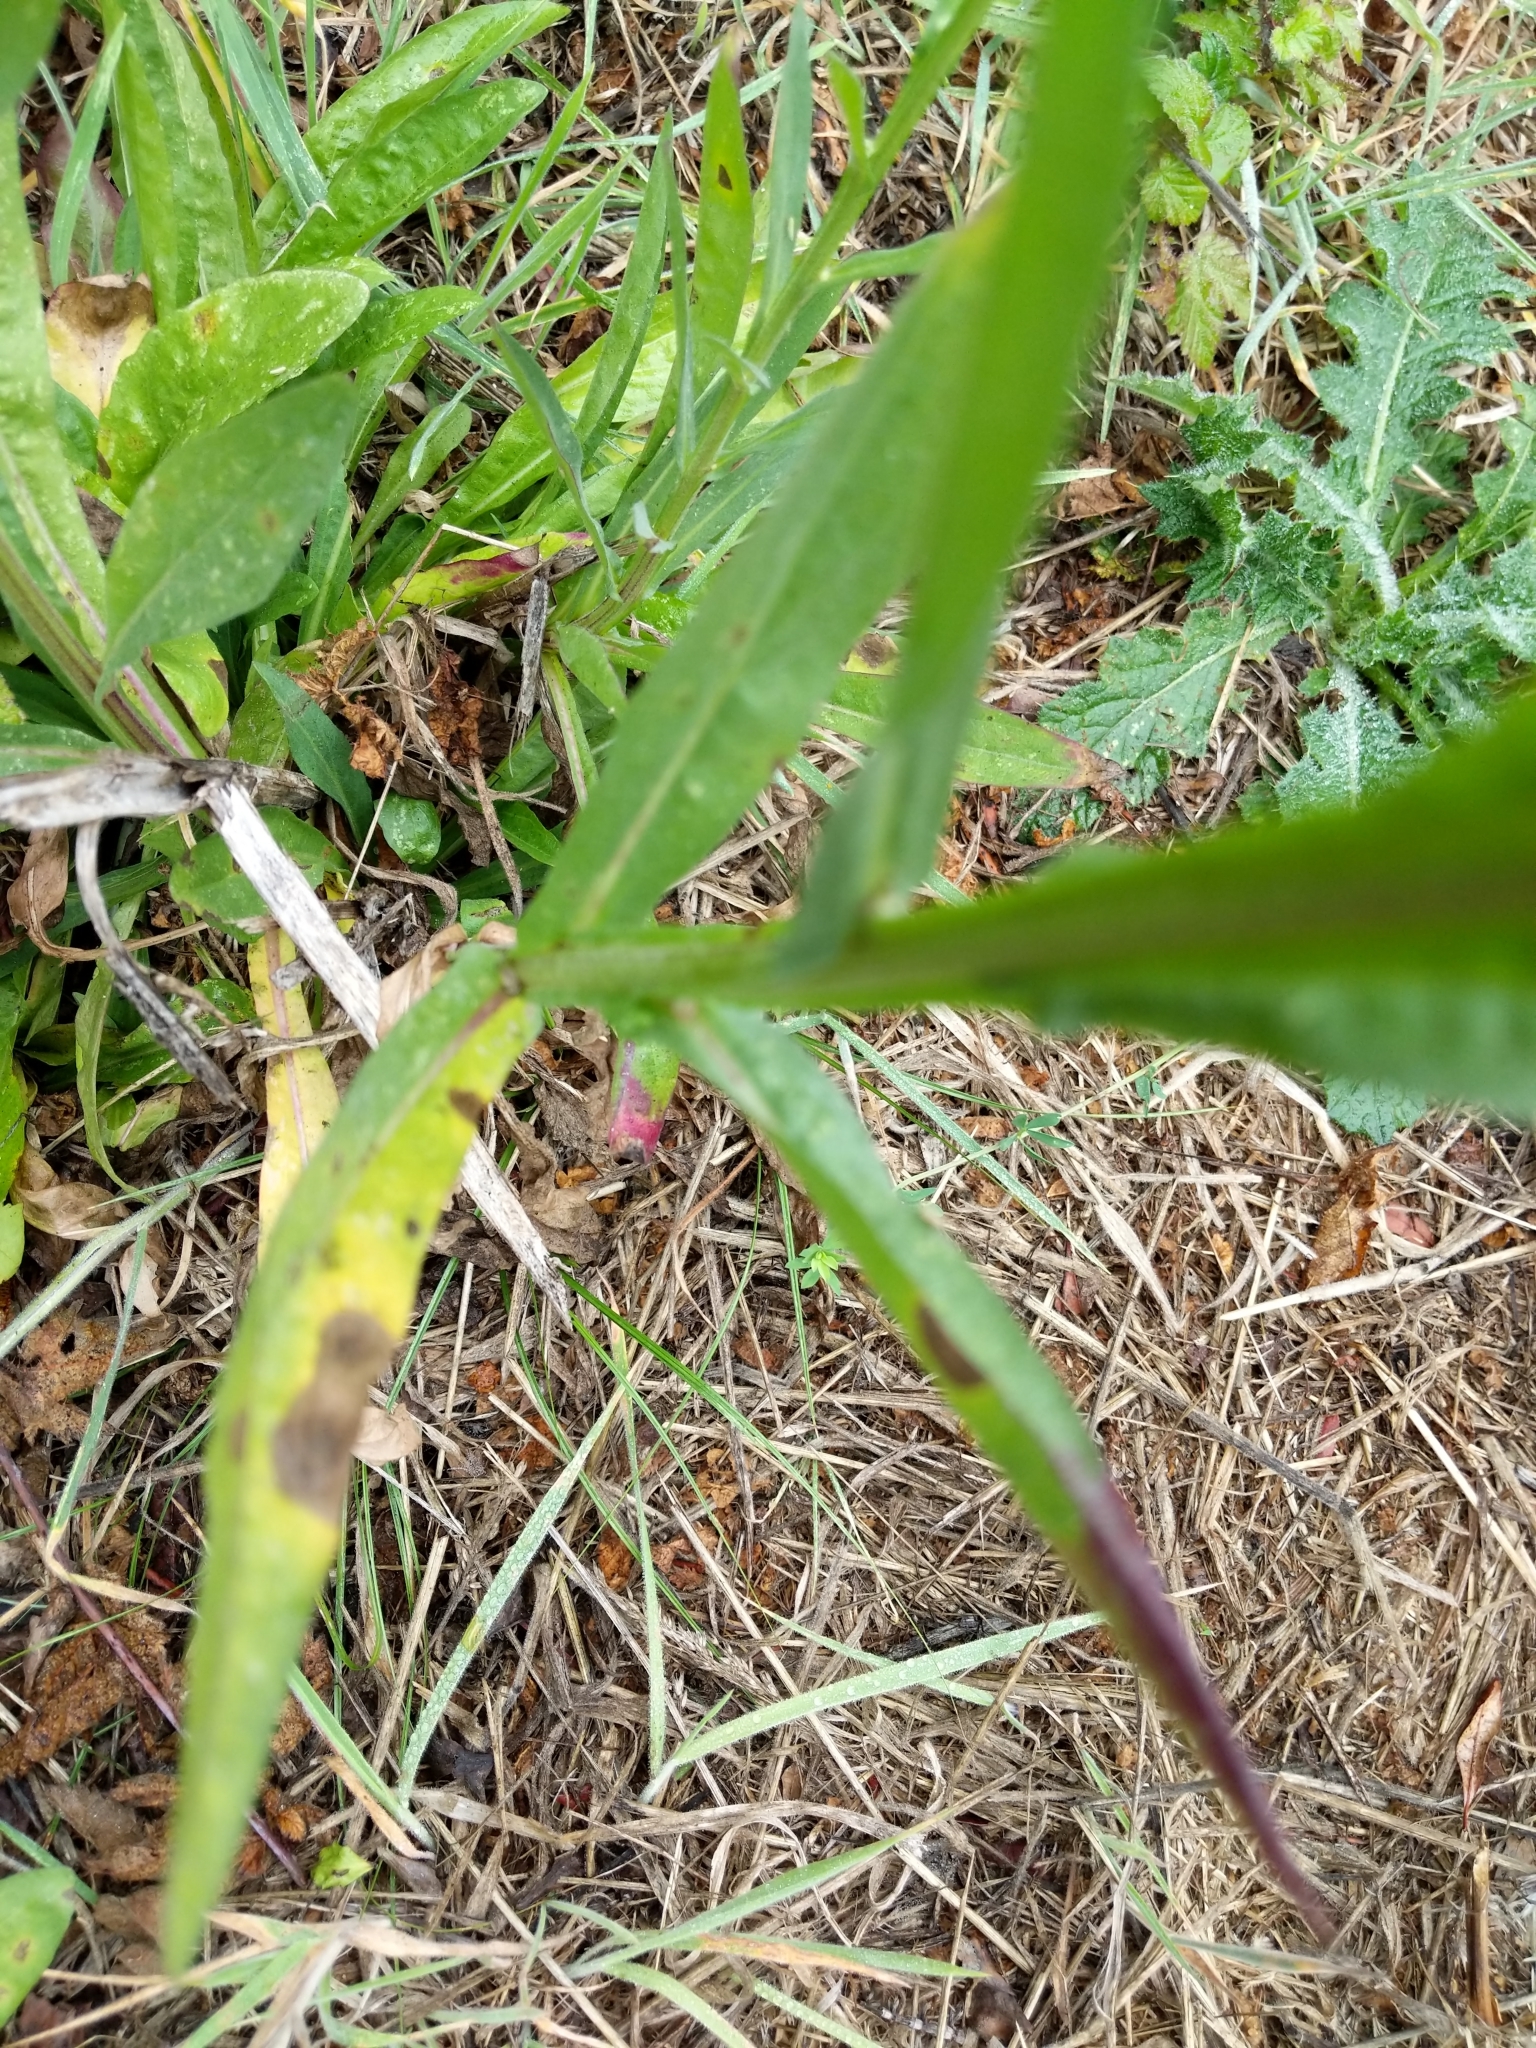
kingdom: Plantae
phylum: Tracheophyta
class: Magnoliopsida
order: Asterales
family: Asteraceae
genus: Helenium
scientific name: Helenium puberulum
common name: Sneezewort
